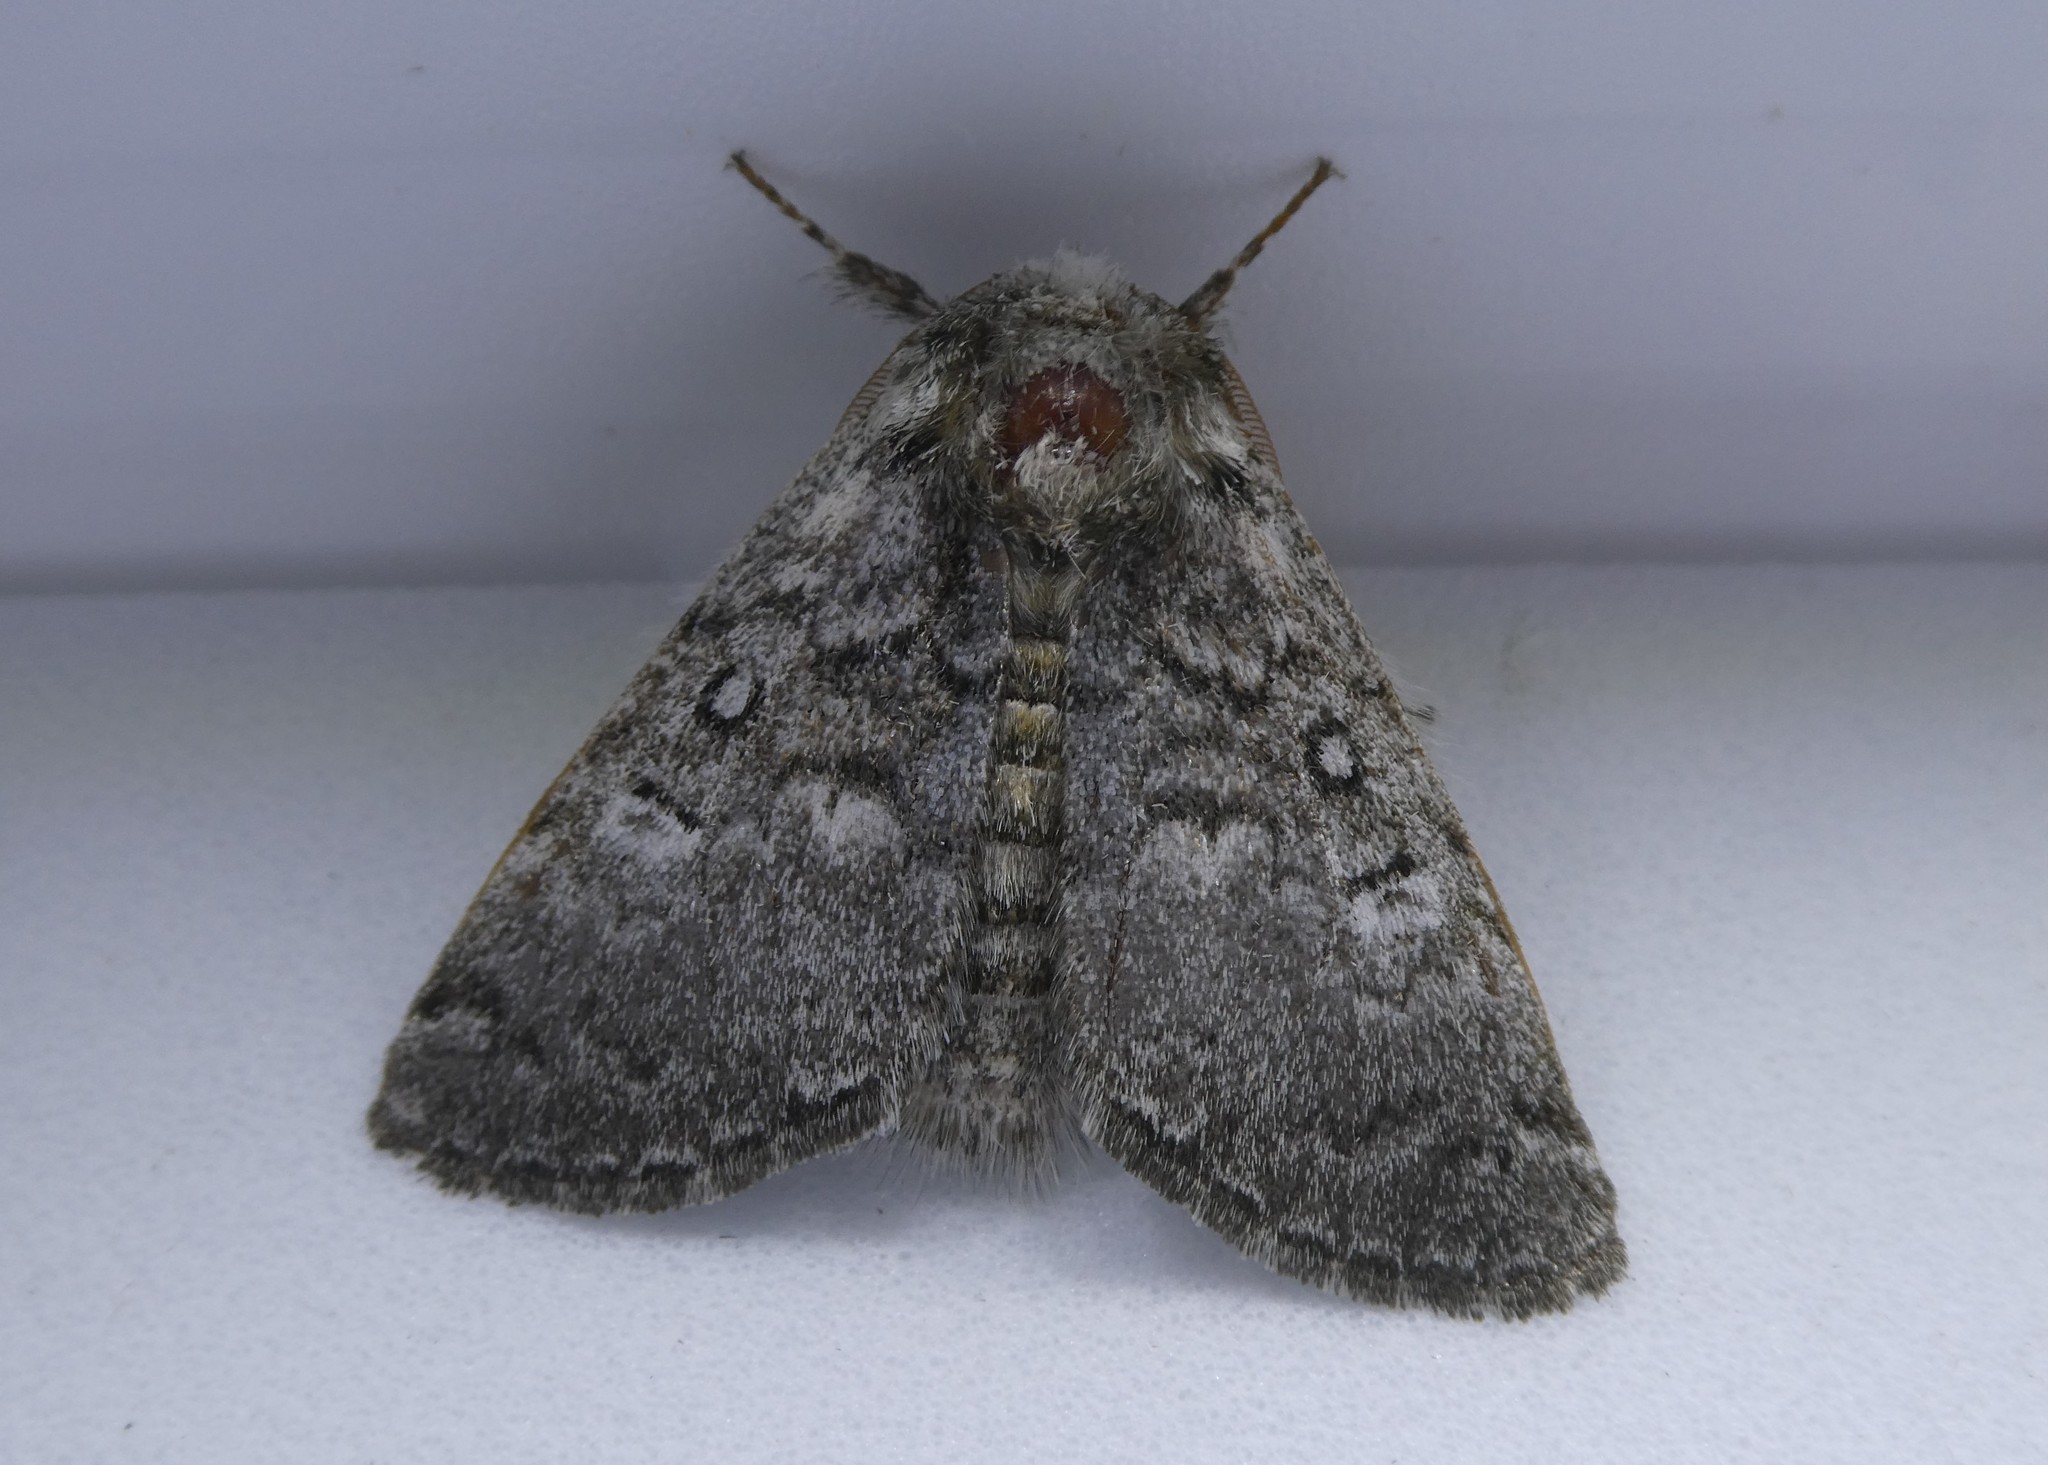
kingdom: Animalia
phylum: Arthropoda
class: Insecta
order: Lepidoptera
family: Noctuidae
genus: Colocasia
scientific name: Colocasia propinquilinea
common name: Close-banded demas
